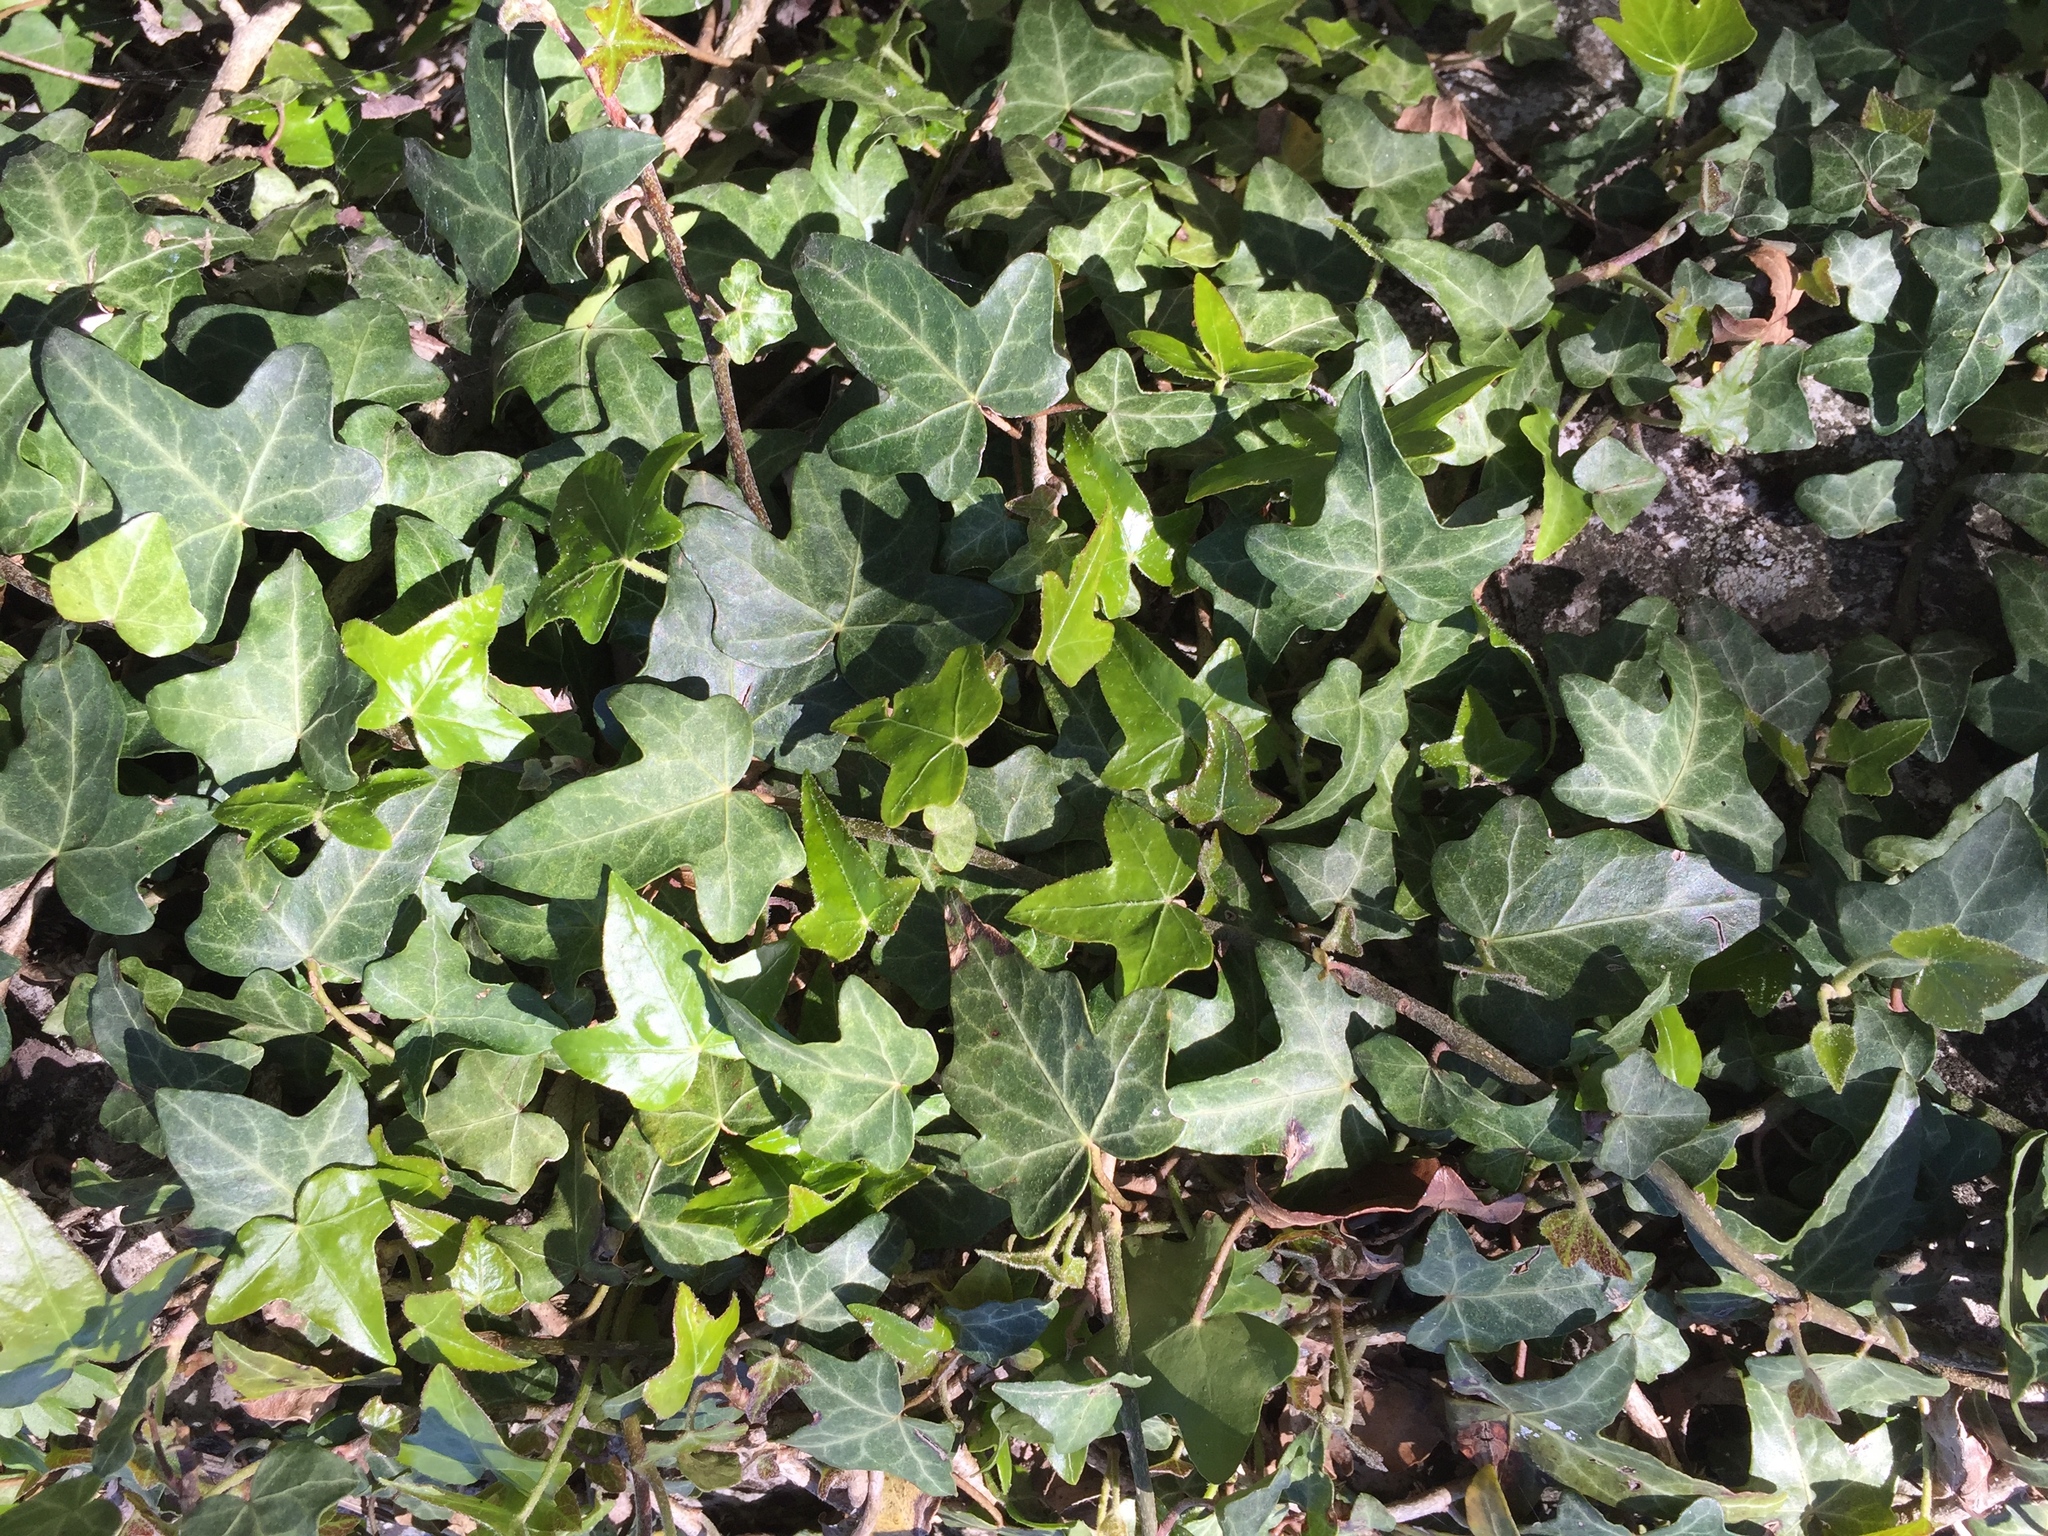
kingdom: Plantae
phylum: Tracheophyta
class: Magnoliopsida
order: Apiales
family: Araliaceae
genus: Hedera
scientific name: Hedera helix
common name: Ivy
